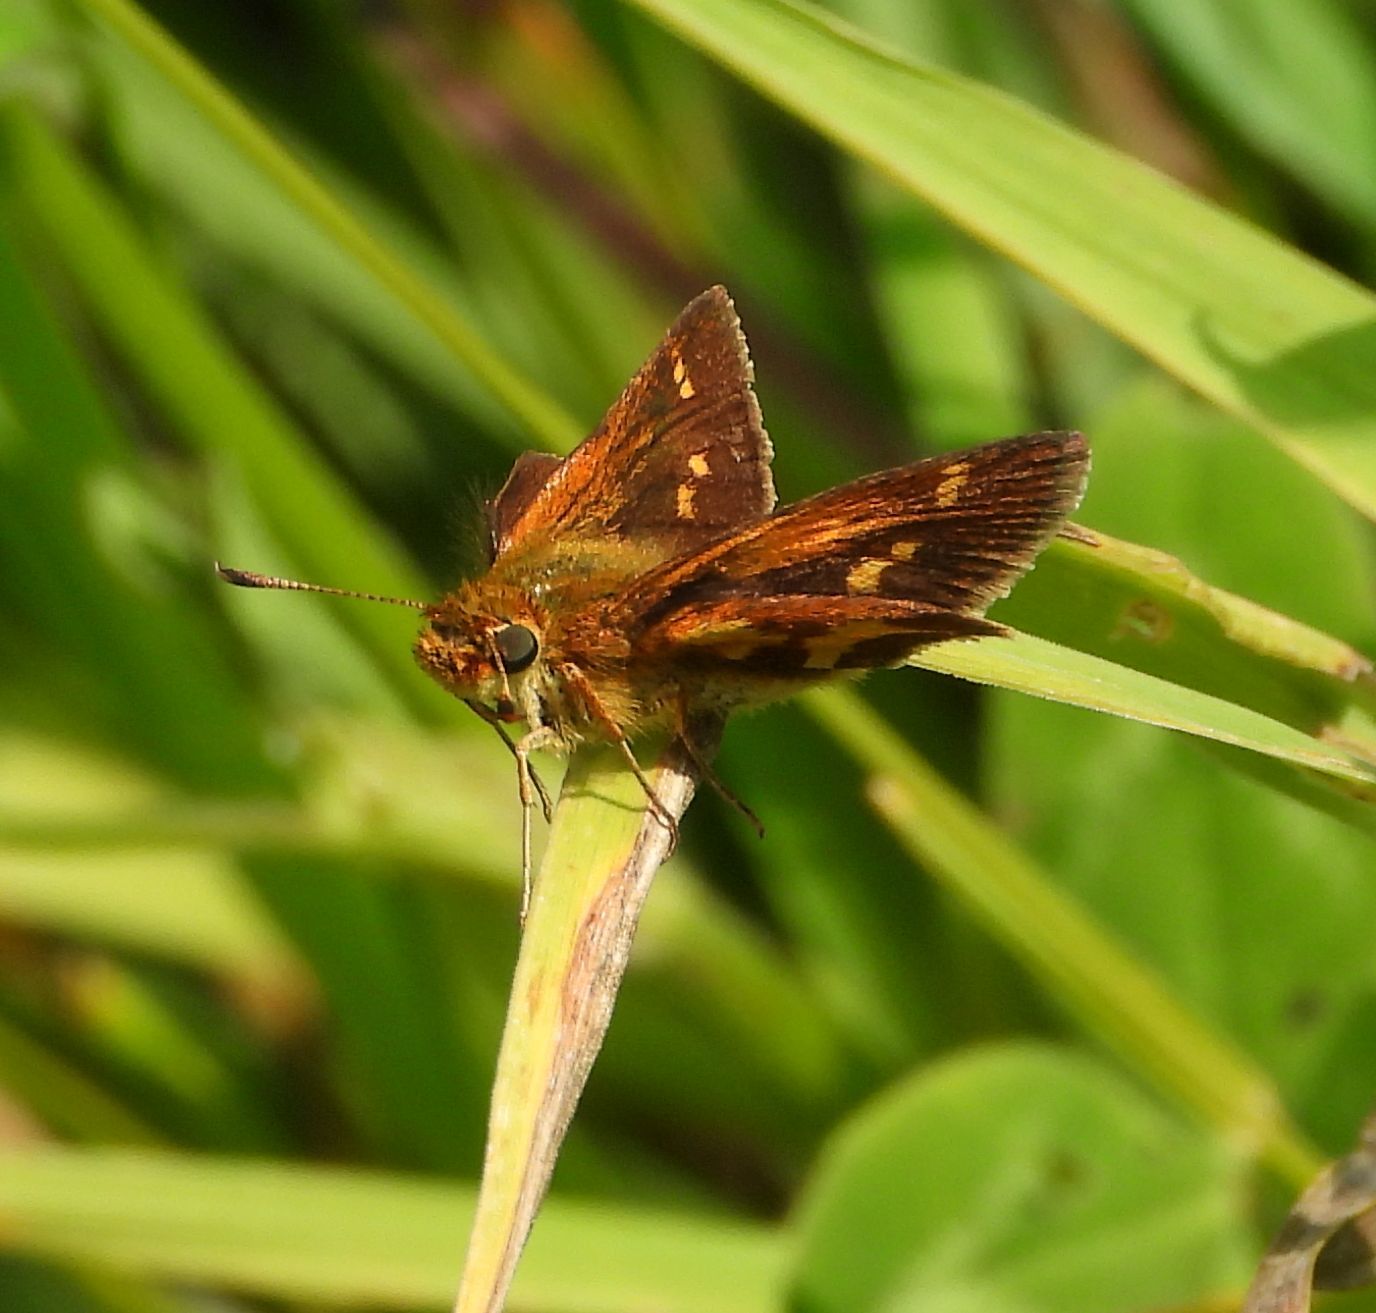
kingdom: Animalia
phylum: Arthropoda
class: Insecta
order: Lepidoptera
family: Hesperiidae
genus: Polites
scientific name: Polites coras
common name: Peck's skipper
